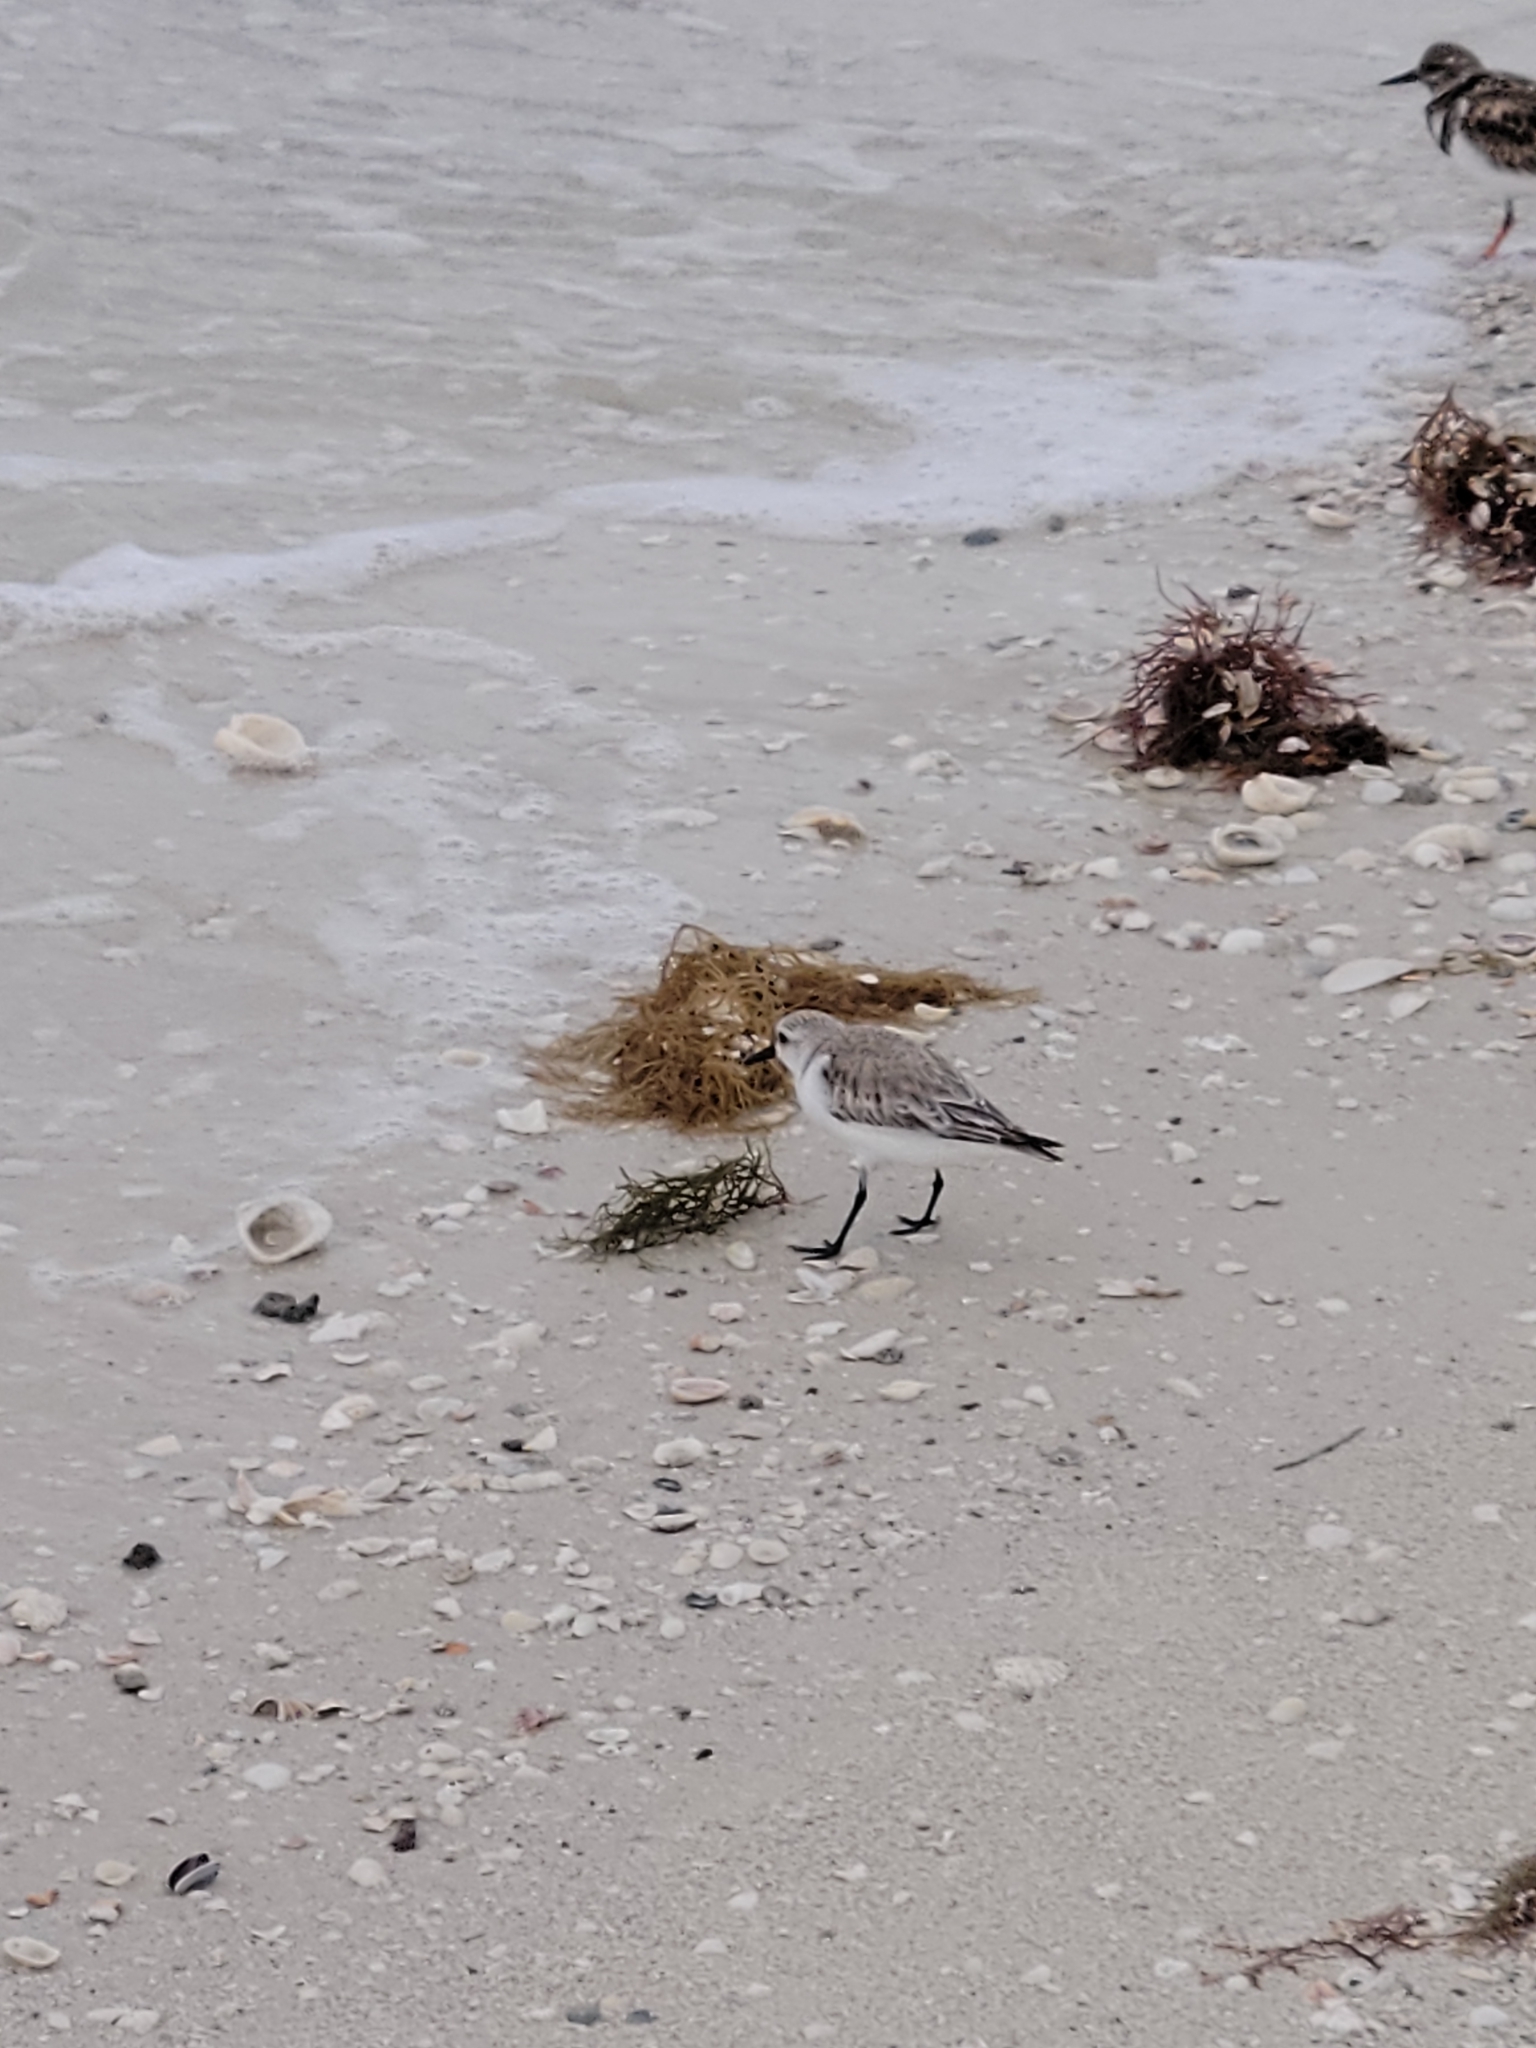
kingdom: Animalia
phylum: Chordata
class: Aves
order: Charadriiformes
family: Scolopacidae
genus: Calidris
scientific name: Calidris alba
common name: Sanderling
